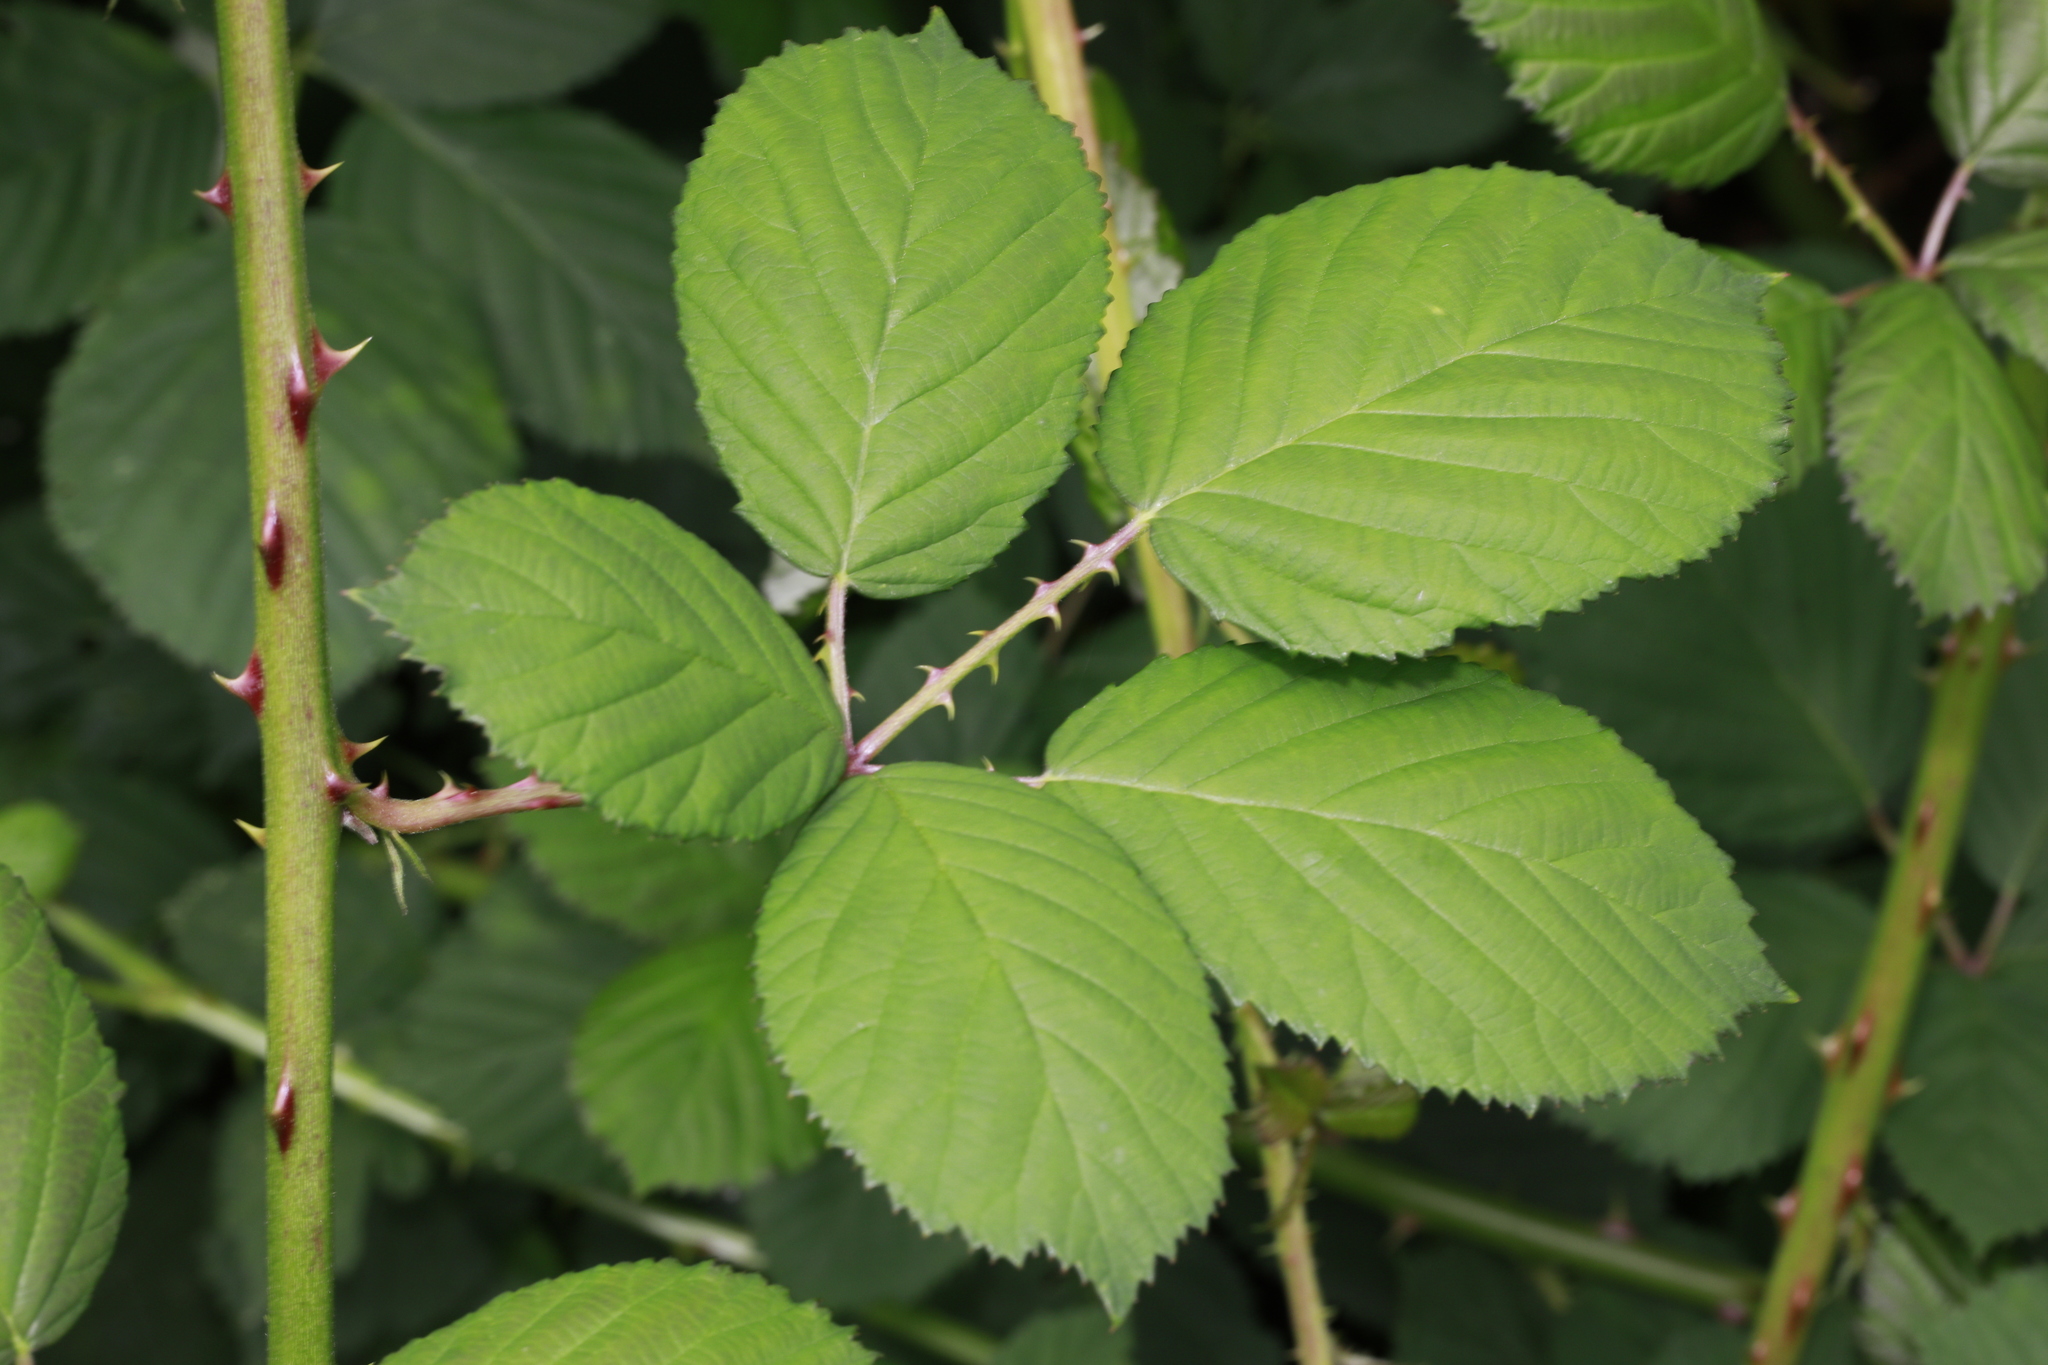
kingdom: Plantae
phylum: Tracheophyta
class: Magnoliopsida
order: Rosales
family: Rosaceae
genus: Rubus
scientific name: Rubus armeniacus
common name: Himalayan blackberry
